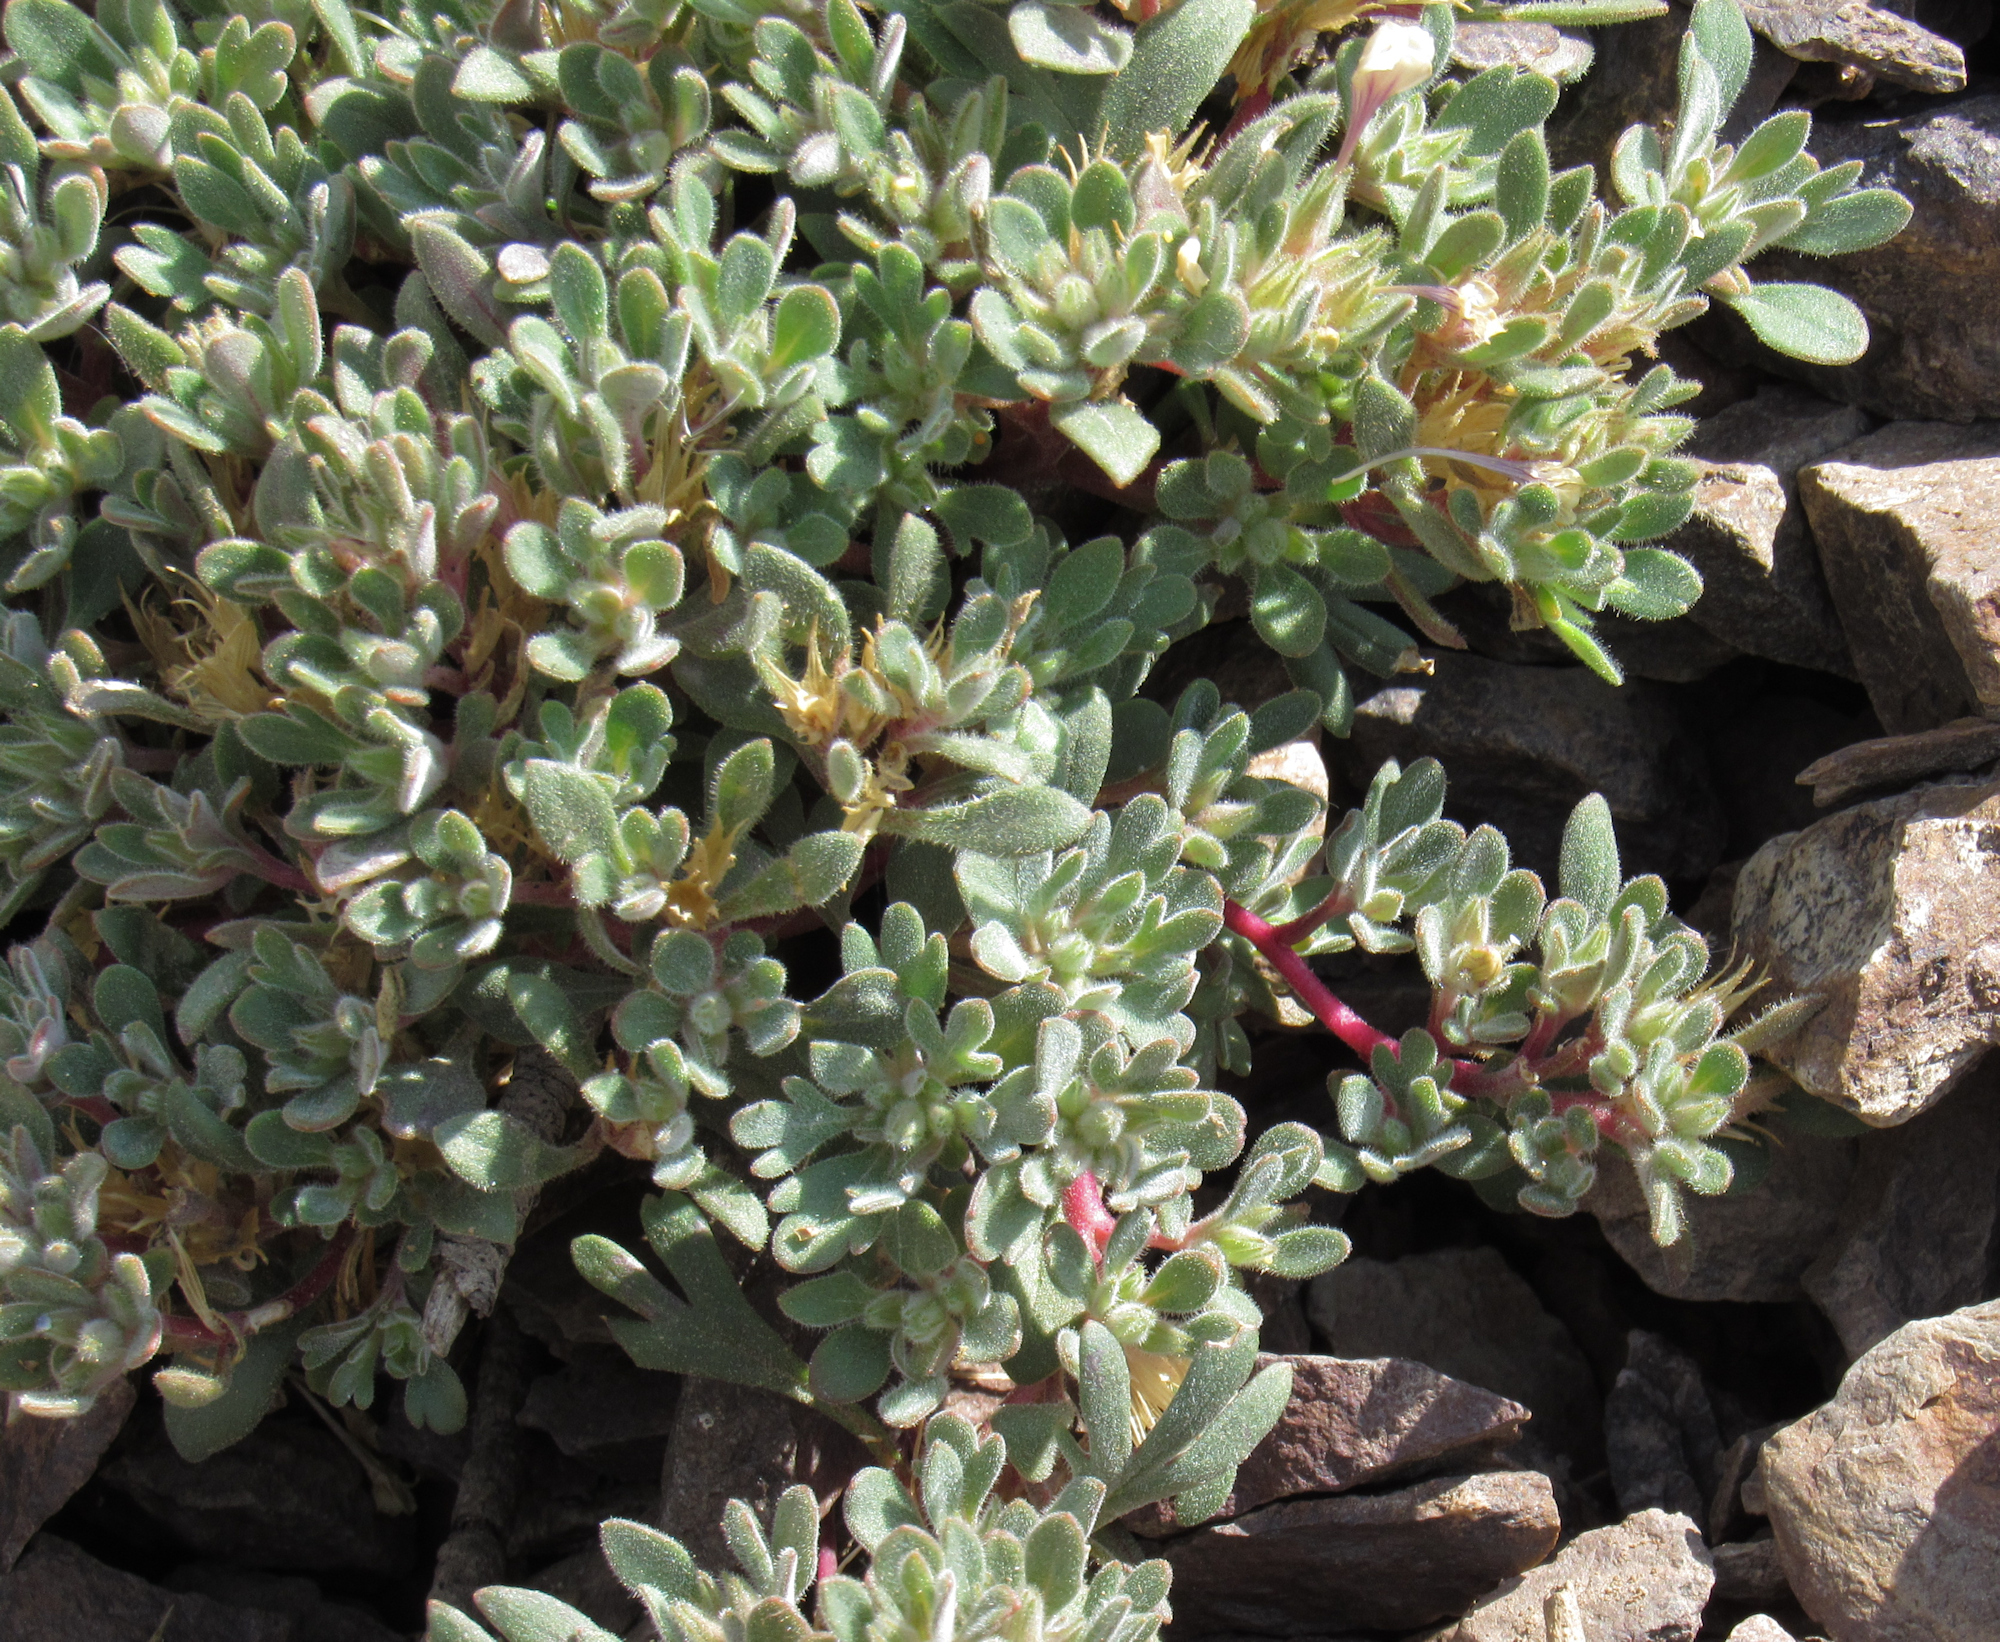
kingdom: Plantae
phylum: Tracheophyta
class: Magnoliopsida
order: Ericales
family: Polemoniaceae
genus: Collomia
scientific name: Collomia debilis
